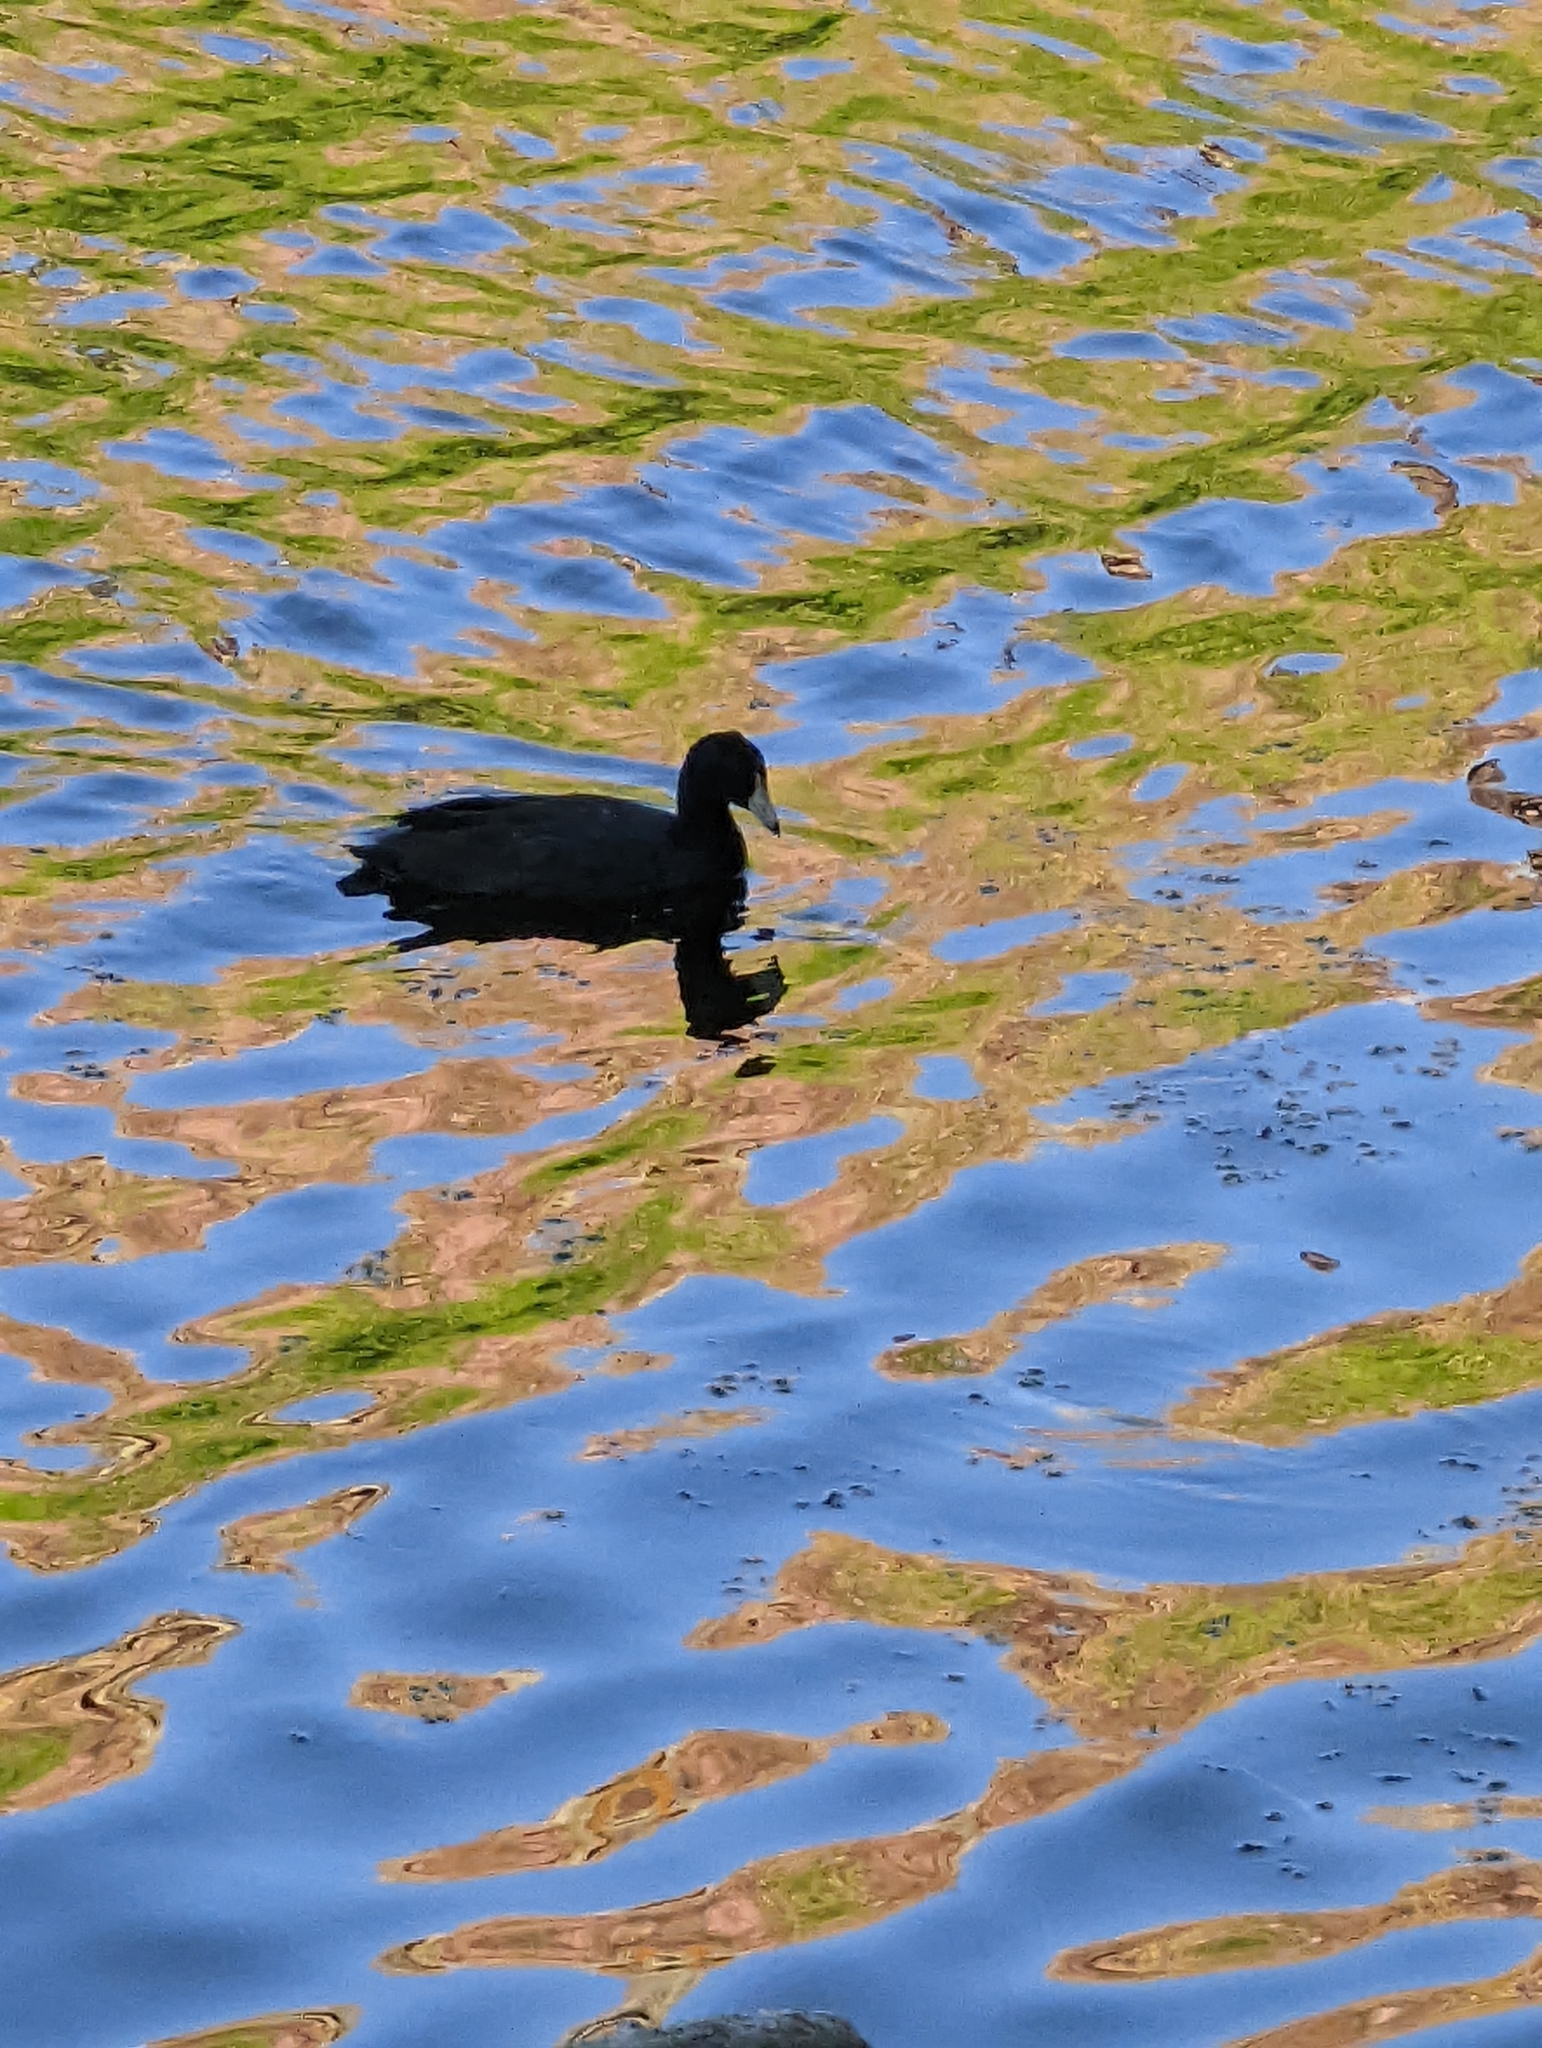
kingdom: Animalia
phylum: Chordata
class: Aves
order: Gruiformes
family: Rallidae
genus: Fulica
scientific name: Fulica americana
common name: American coot
